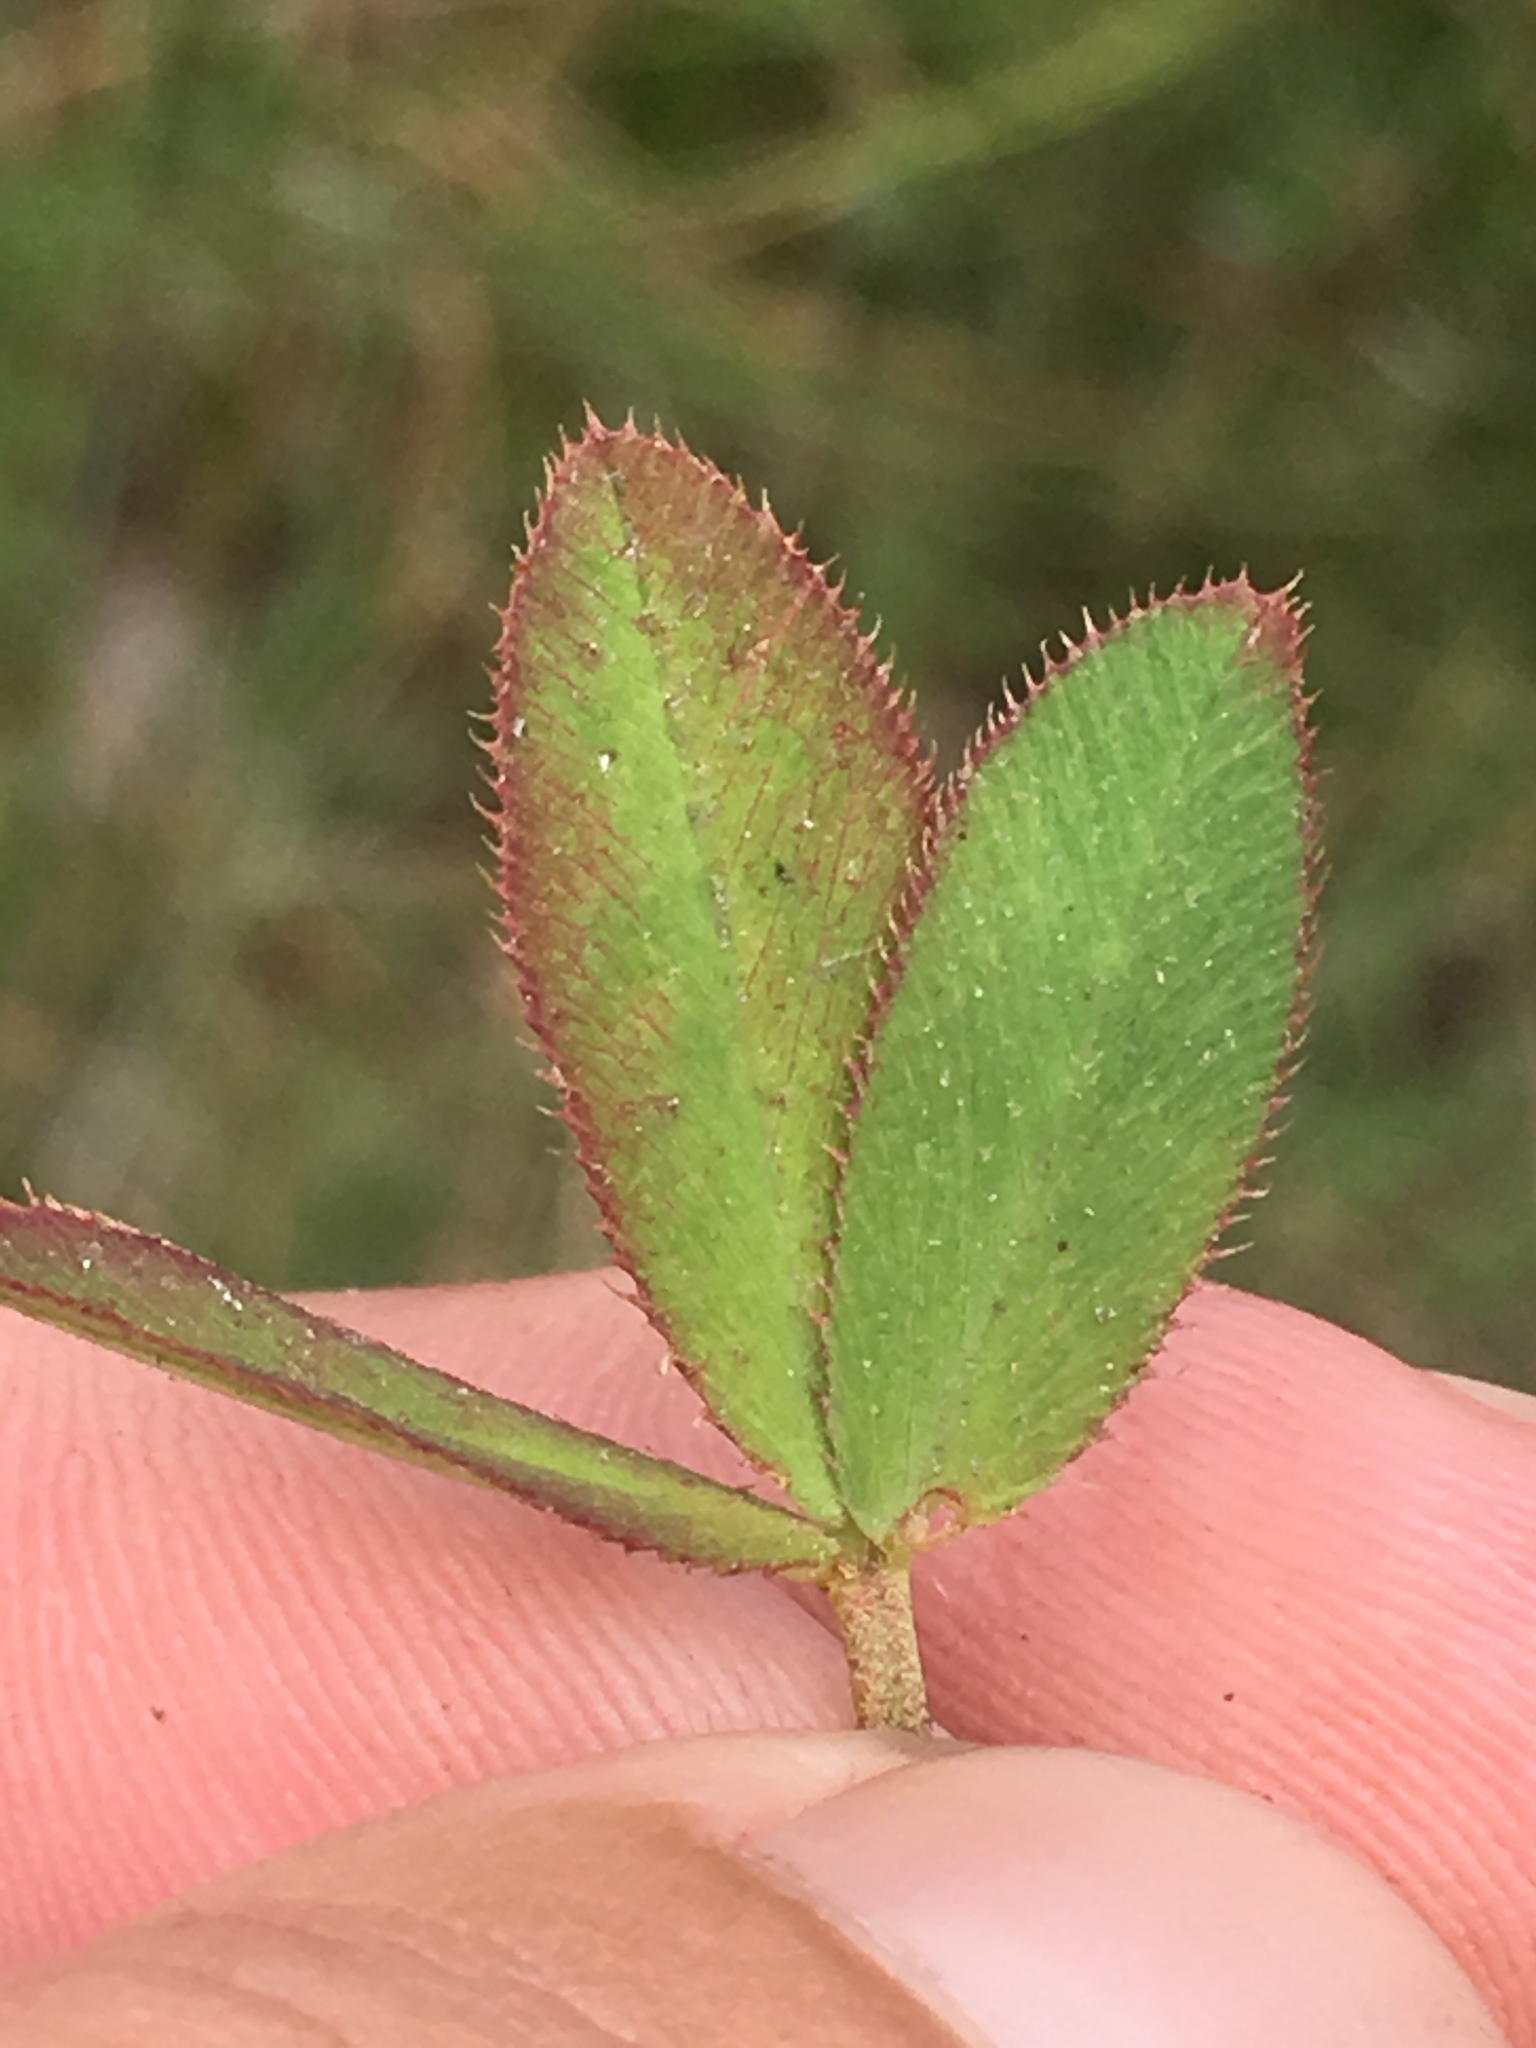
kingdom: Plantae
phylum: Tracheophyta
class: Magnoliopsida
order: Fabales
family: Fabaceae
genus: Trifolium
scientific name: Trifolium wormskioldii
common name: Springbank clover
